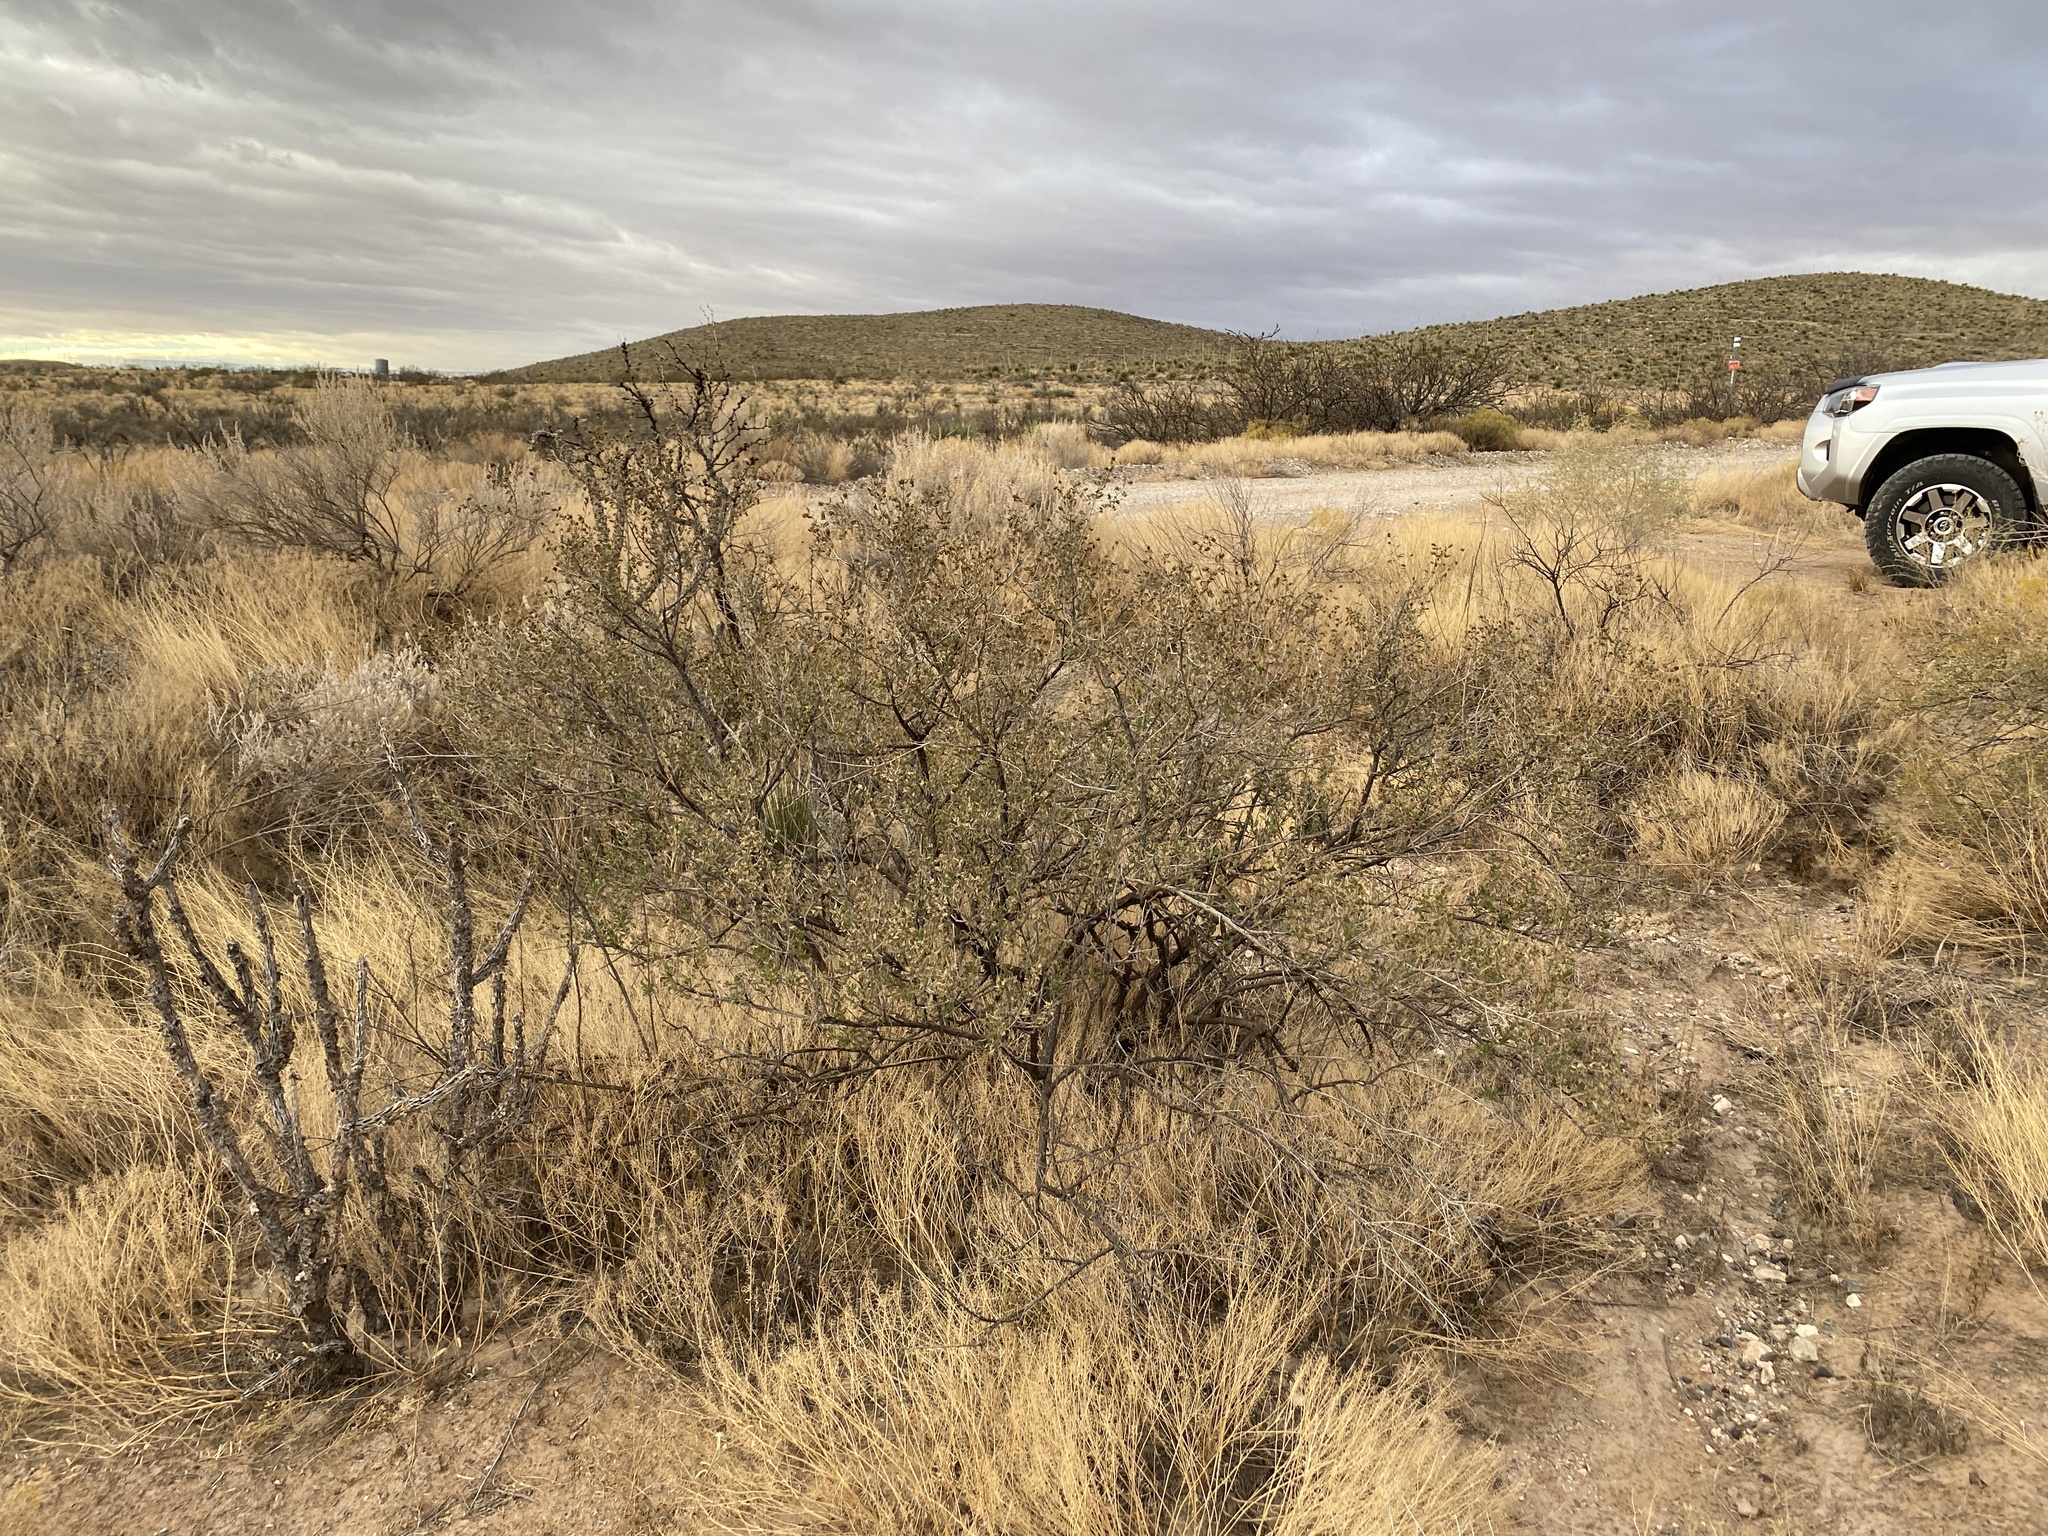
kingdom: Plantae
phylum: Tracheophyta
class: Magnoliopsida
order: Asterales
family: Asteraceae
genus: Flourensia
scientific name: Flourensia cernua
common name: Varnishbush
